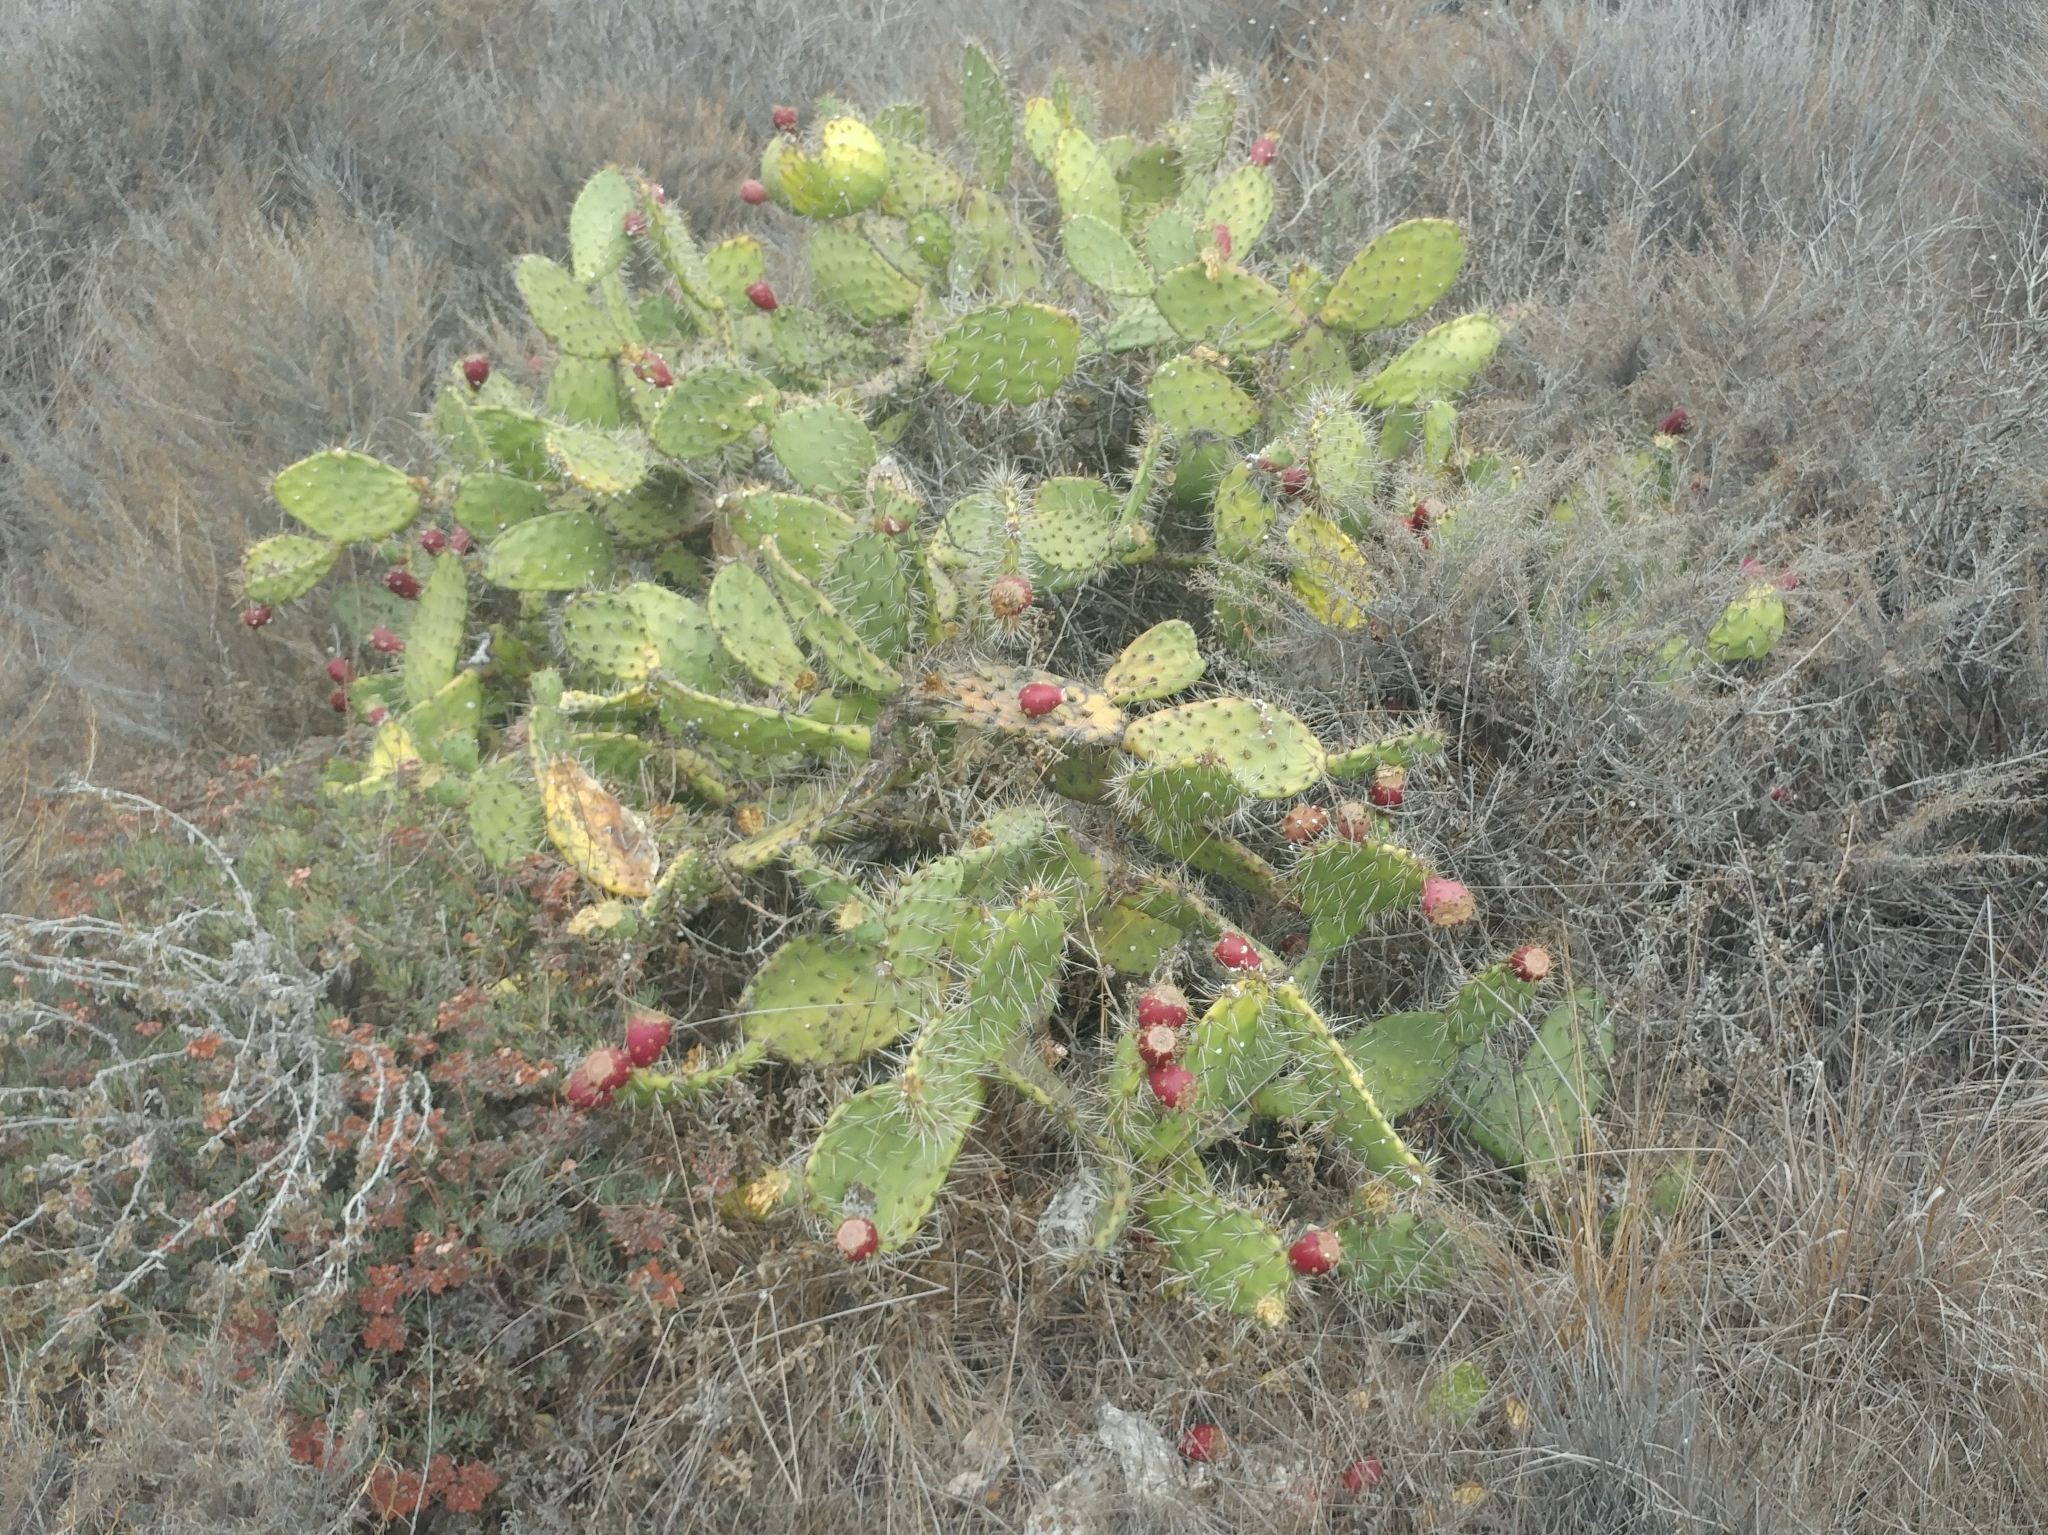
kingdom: Plantae
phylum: Tracheophyta
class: Magnoliopsida
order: Caryophyllales
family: Cactaceae
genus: Opuntia
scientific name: Opuntia littoralis
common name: Coastal prickly-pear
